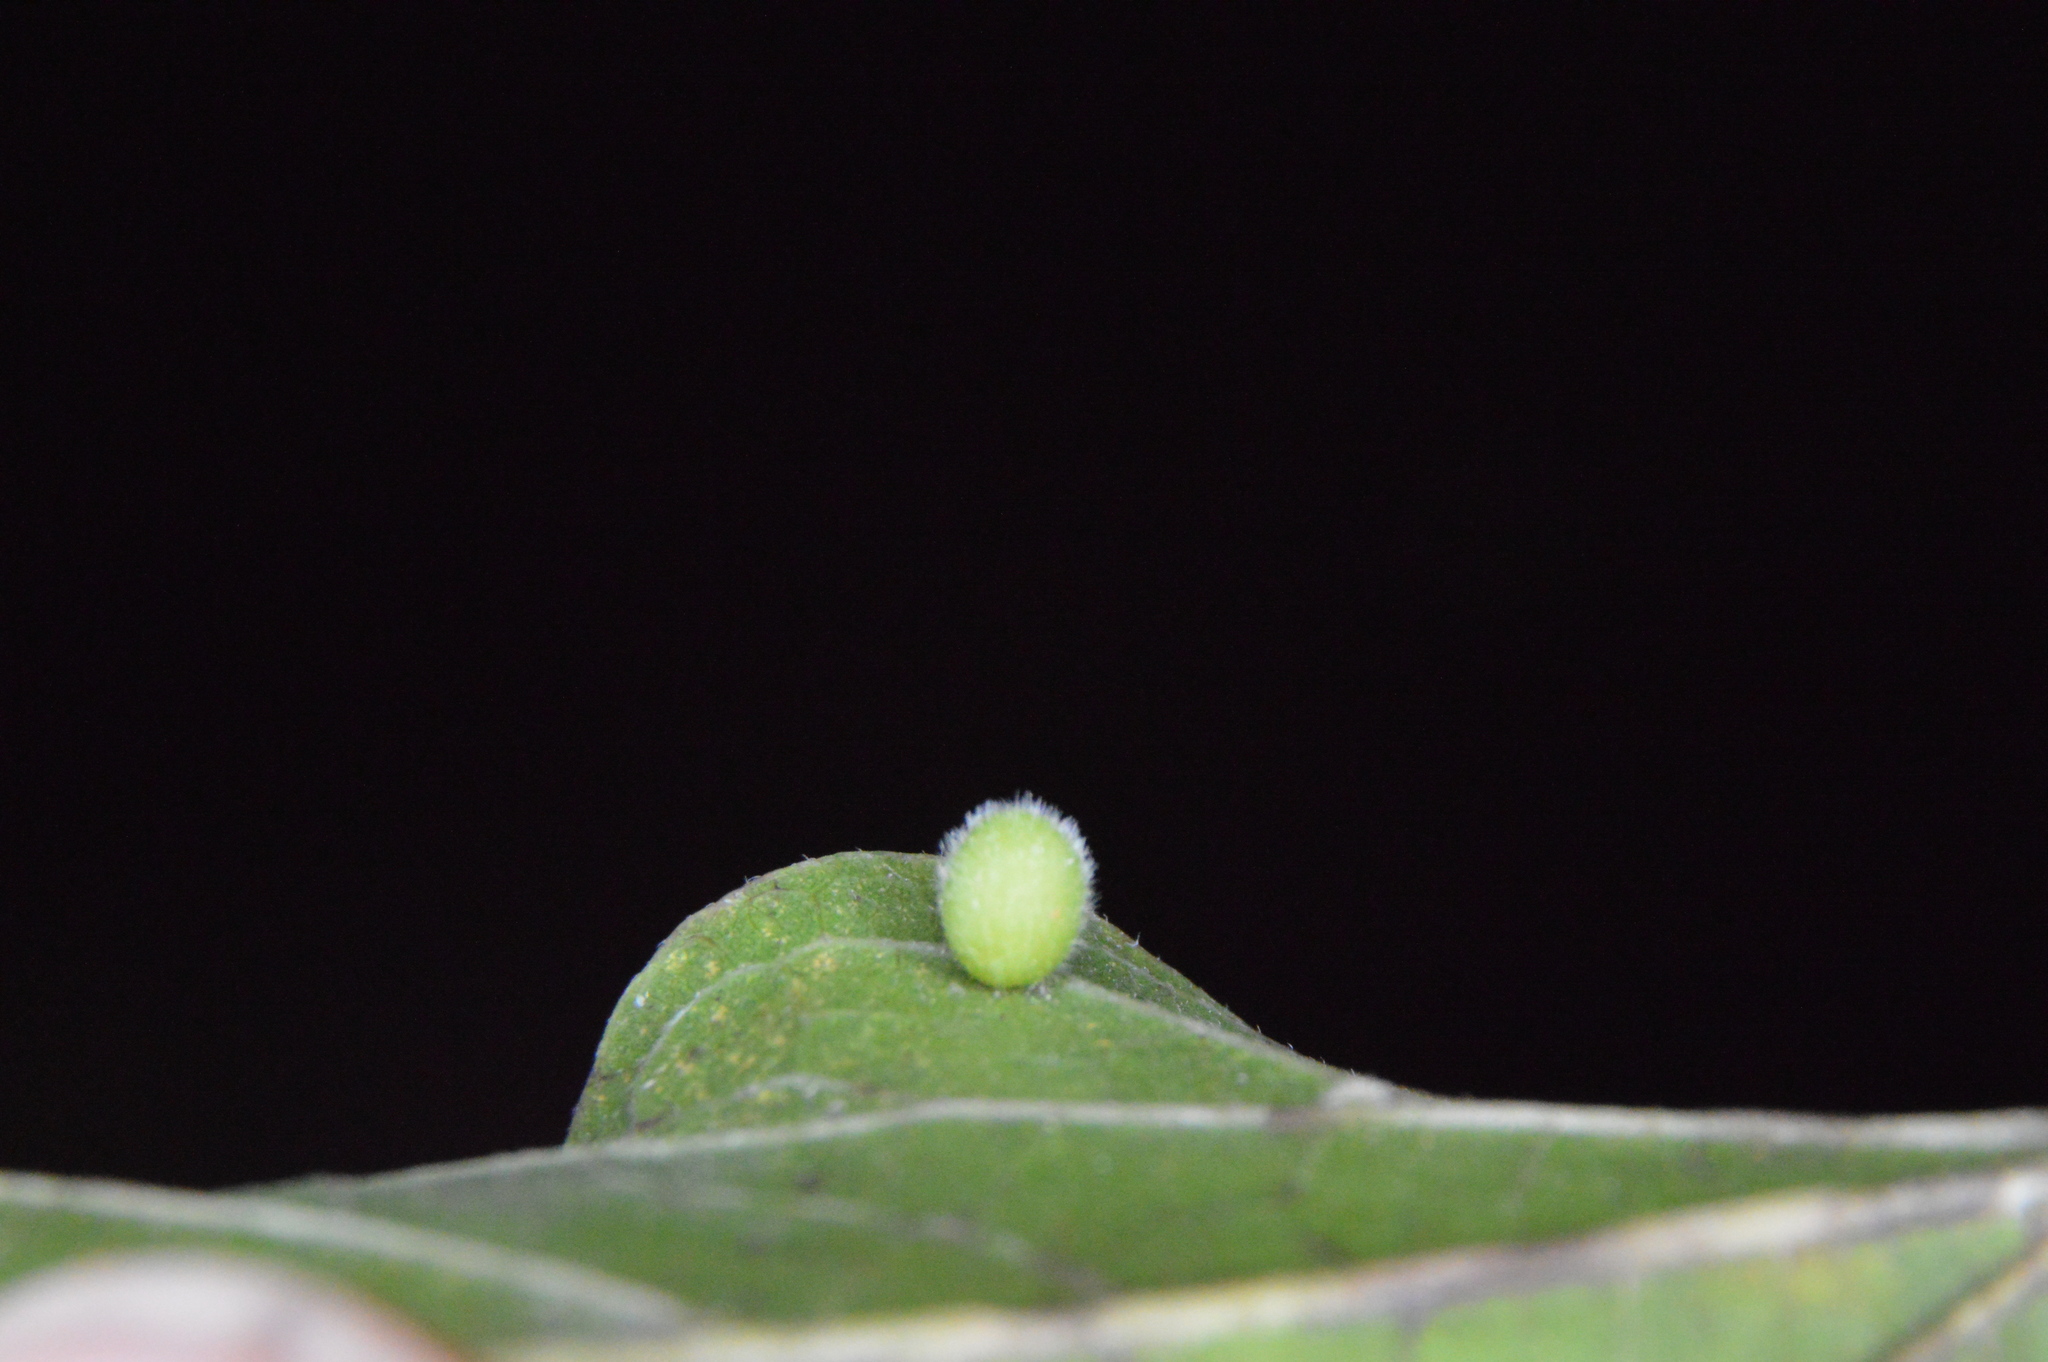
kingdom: Animalia
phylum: Arthropoda
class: Insecta
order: Diptera
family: Cecidomyiidae
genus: Celticecis
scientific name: Celticecis globosa
